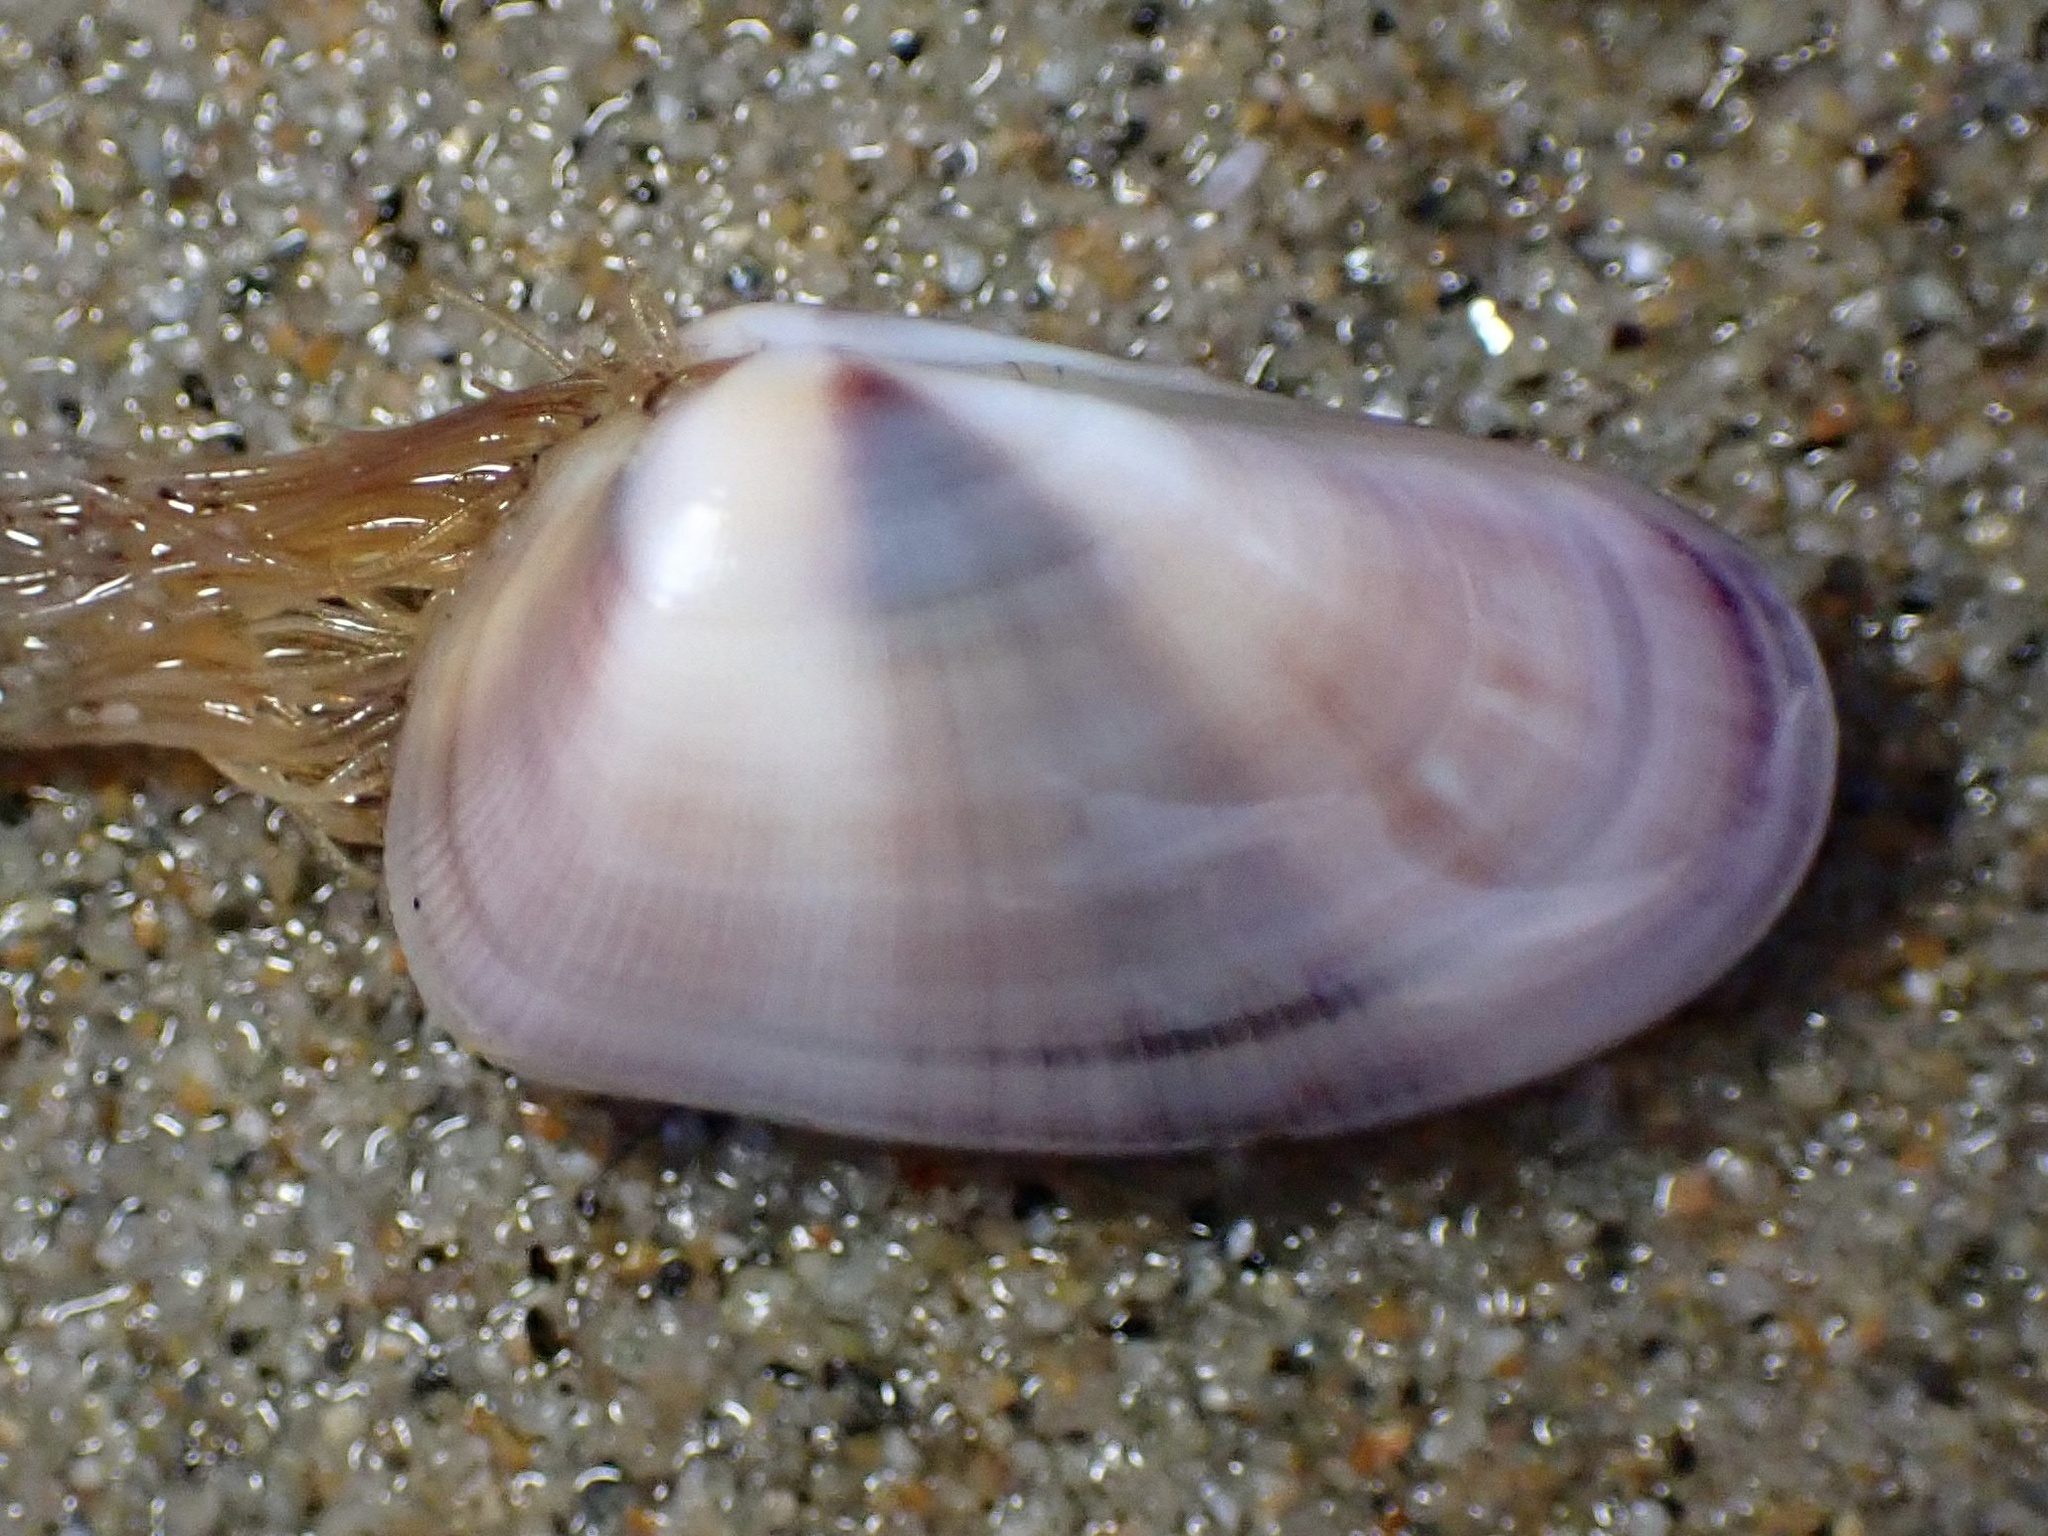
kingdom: Animalia
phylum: Mollusca
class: Bivalvia
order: Cardiida
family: Donacidae
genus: Donax
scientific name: Donax gouldii
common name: Gould beanclam
